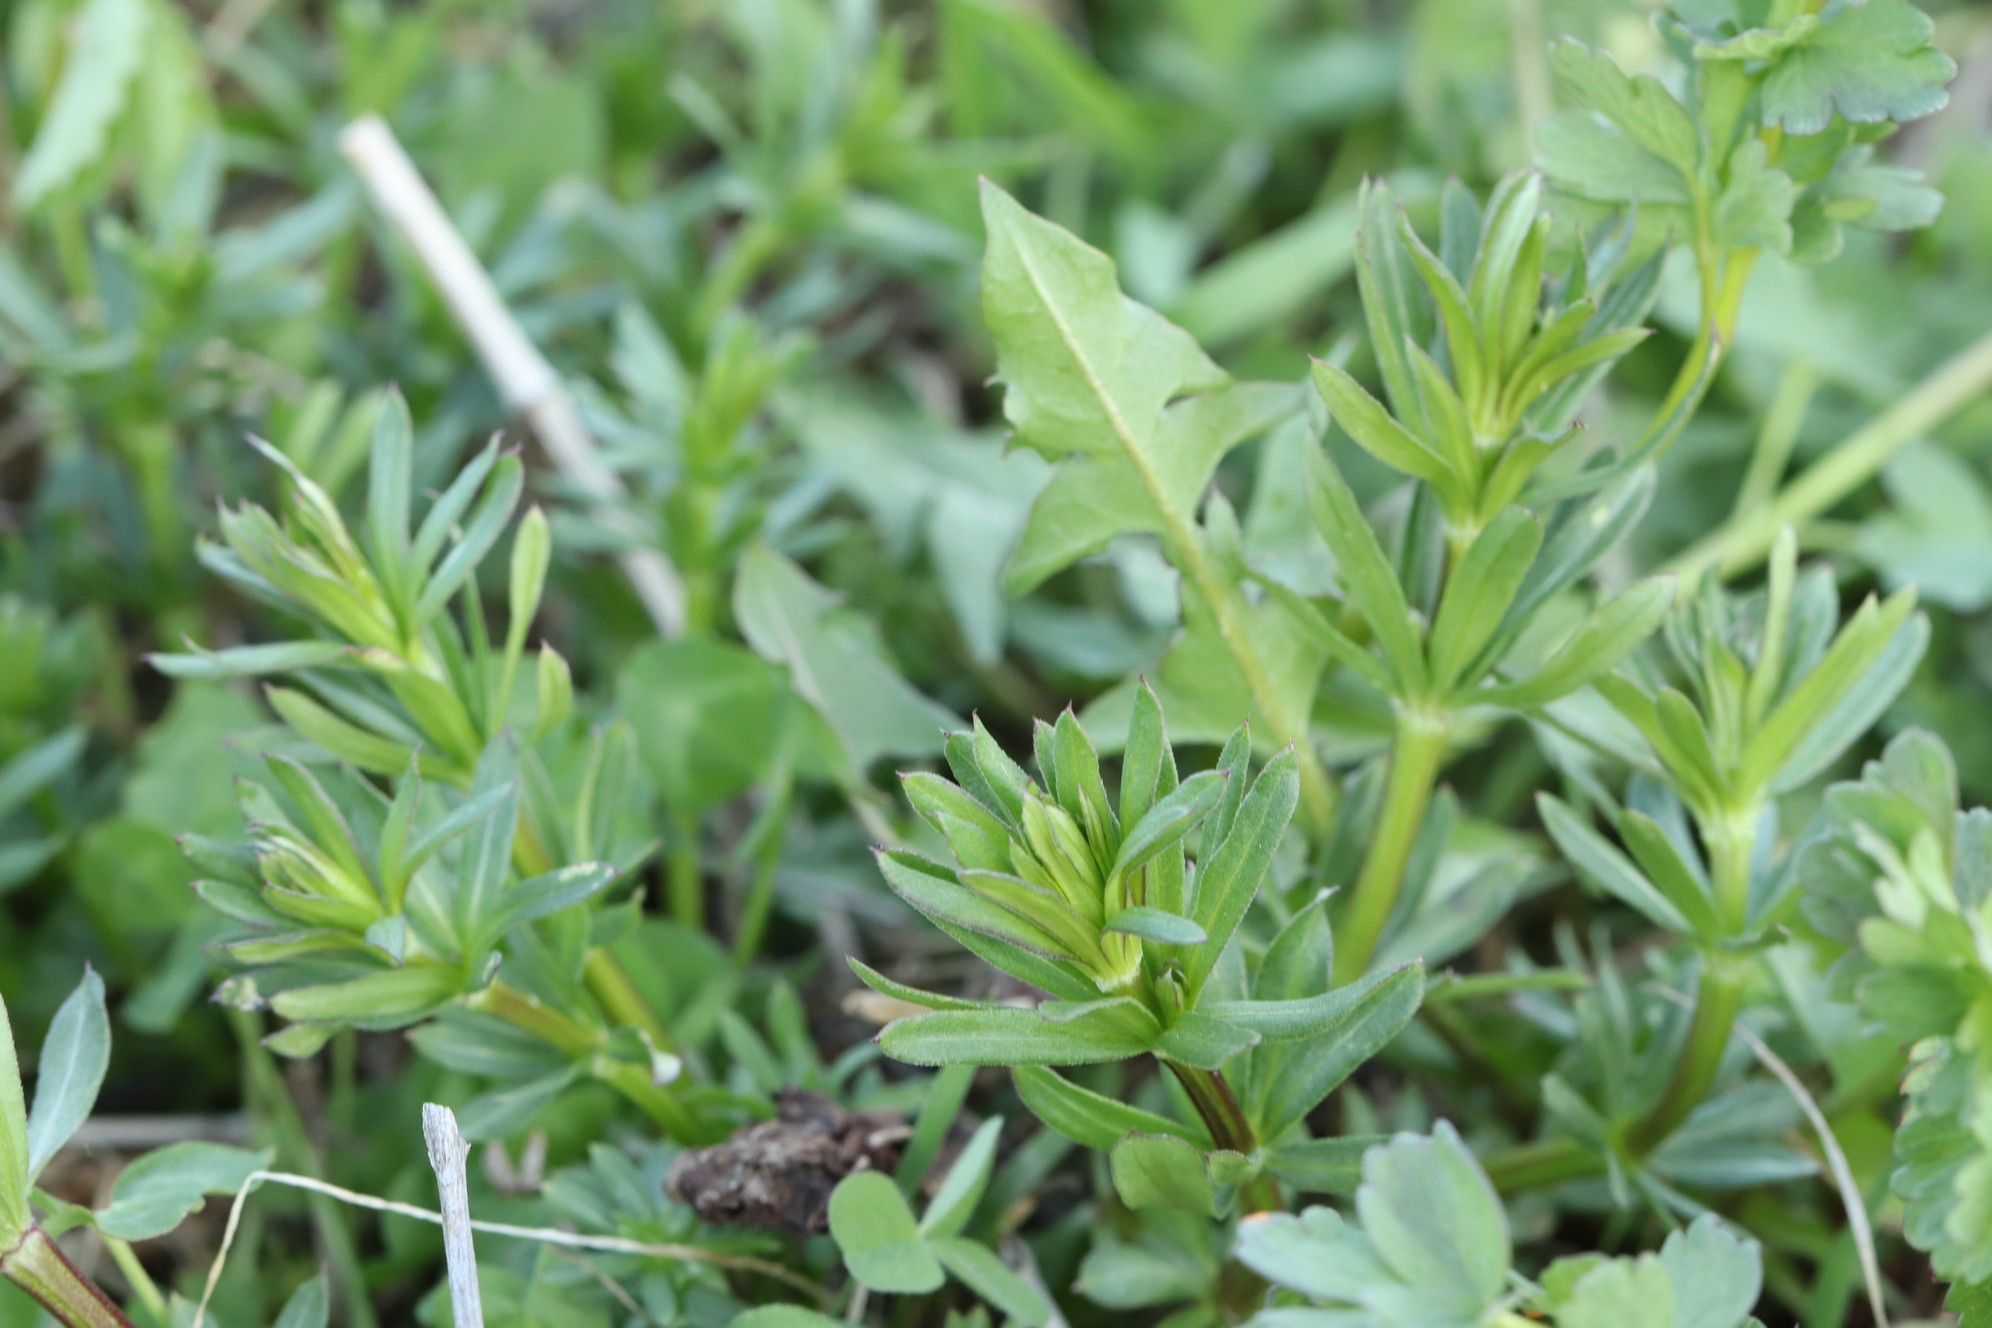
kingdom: Plantae
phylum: Tracheophyta
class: Magnoliopsida
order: Gentianales
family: Rubiaceae
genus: Galium
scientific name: Galium mollugo
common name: Hedge bedstraw
